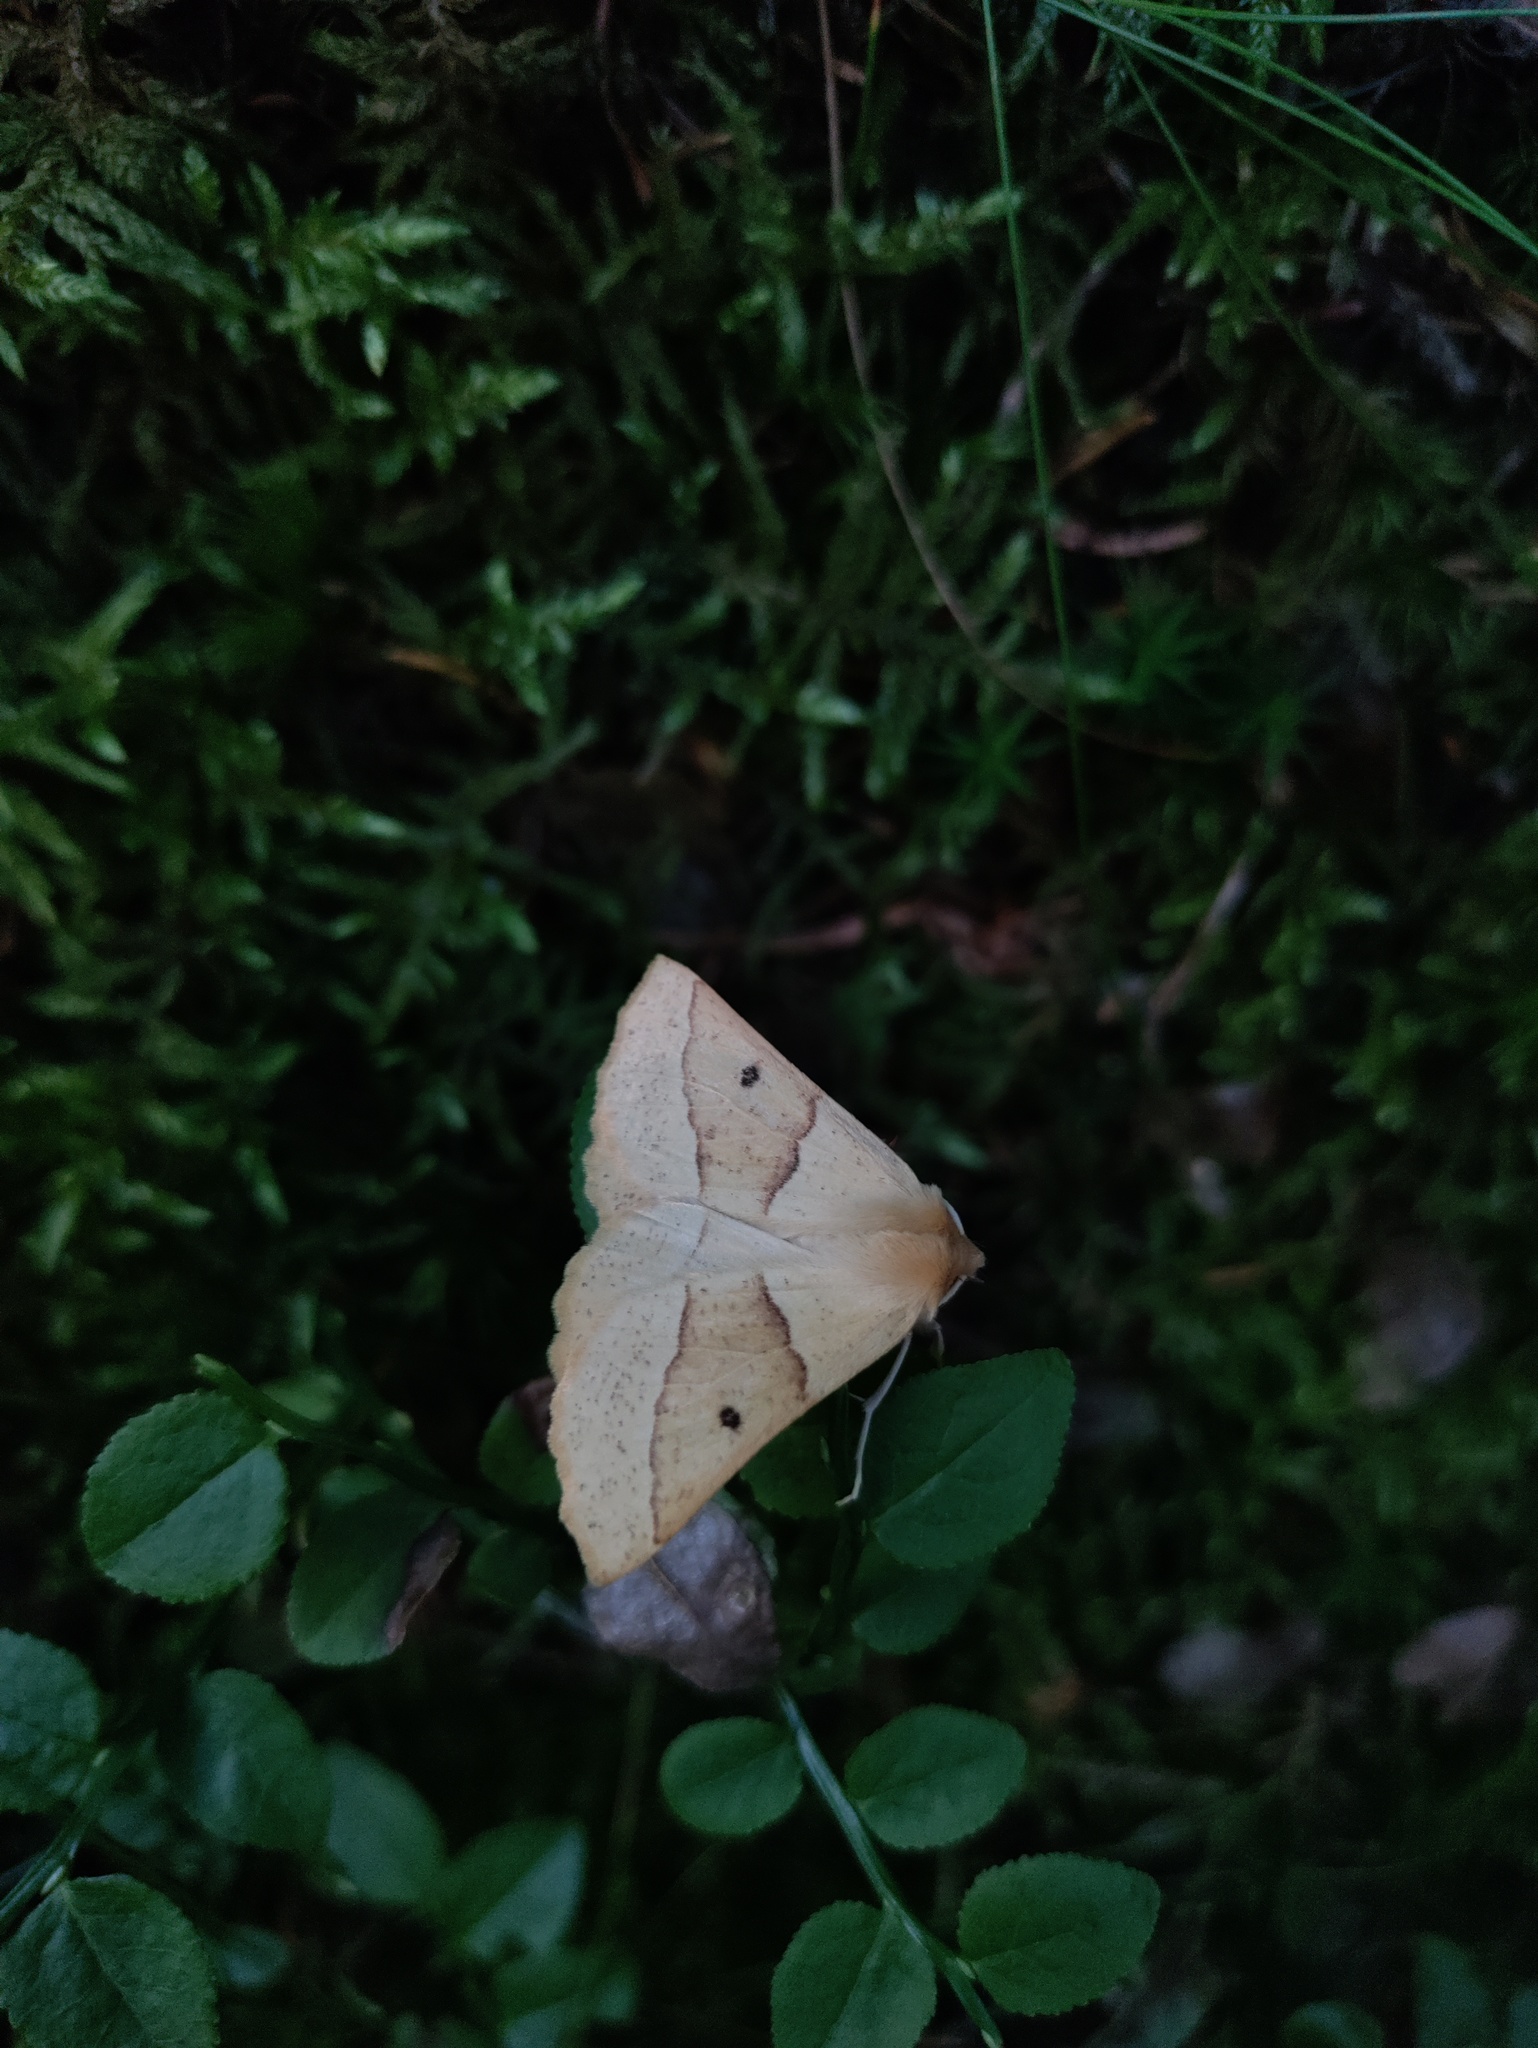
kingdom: Animalia
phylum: Arthropoda
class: Insecta
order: Lepidoptera
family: Geometridae
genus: Crocallis
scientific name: Crocallis elinguaria
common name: Scalloped oak
